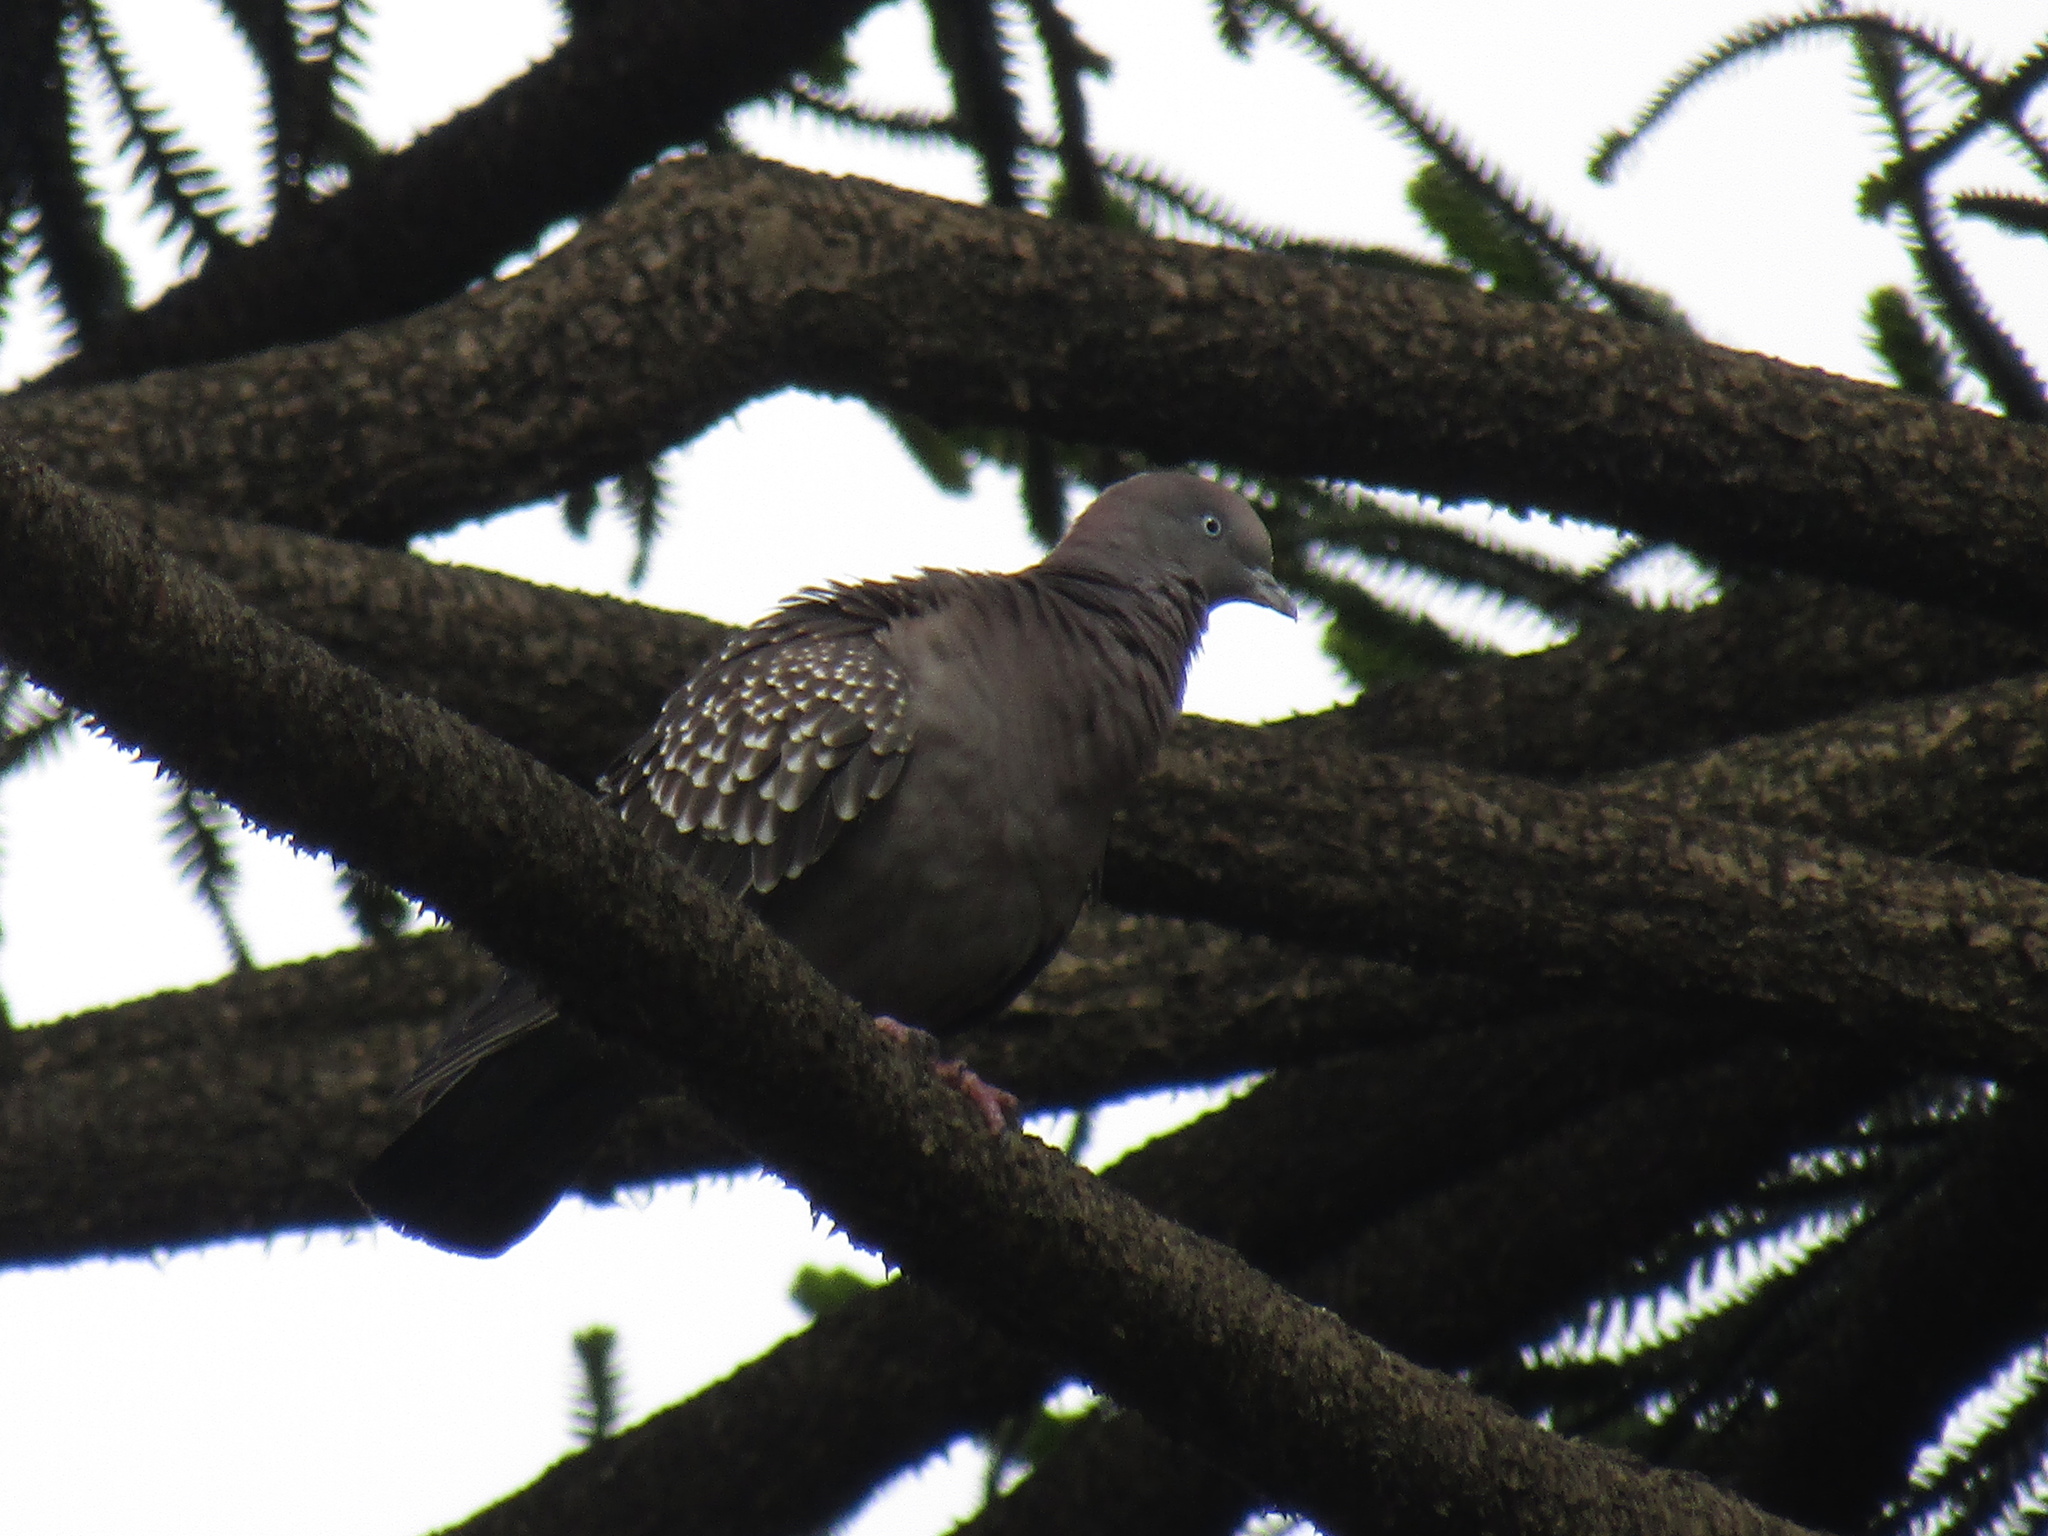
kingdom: Animalia
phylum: Chordata
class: Aves
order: Columbiformes
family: Columbidae
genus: Patagioenas
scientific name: Patagioenas maculosa
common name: Spot-winged pigeon
